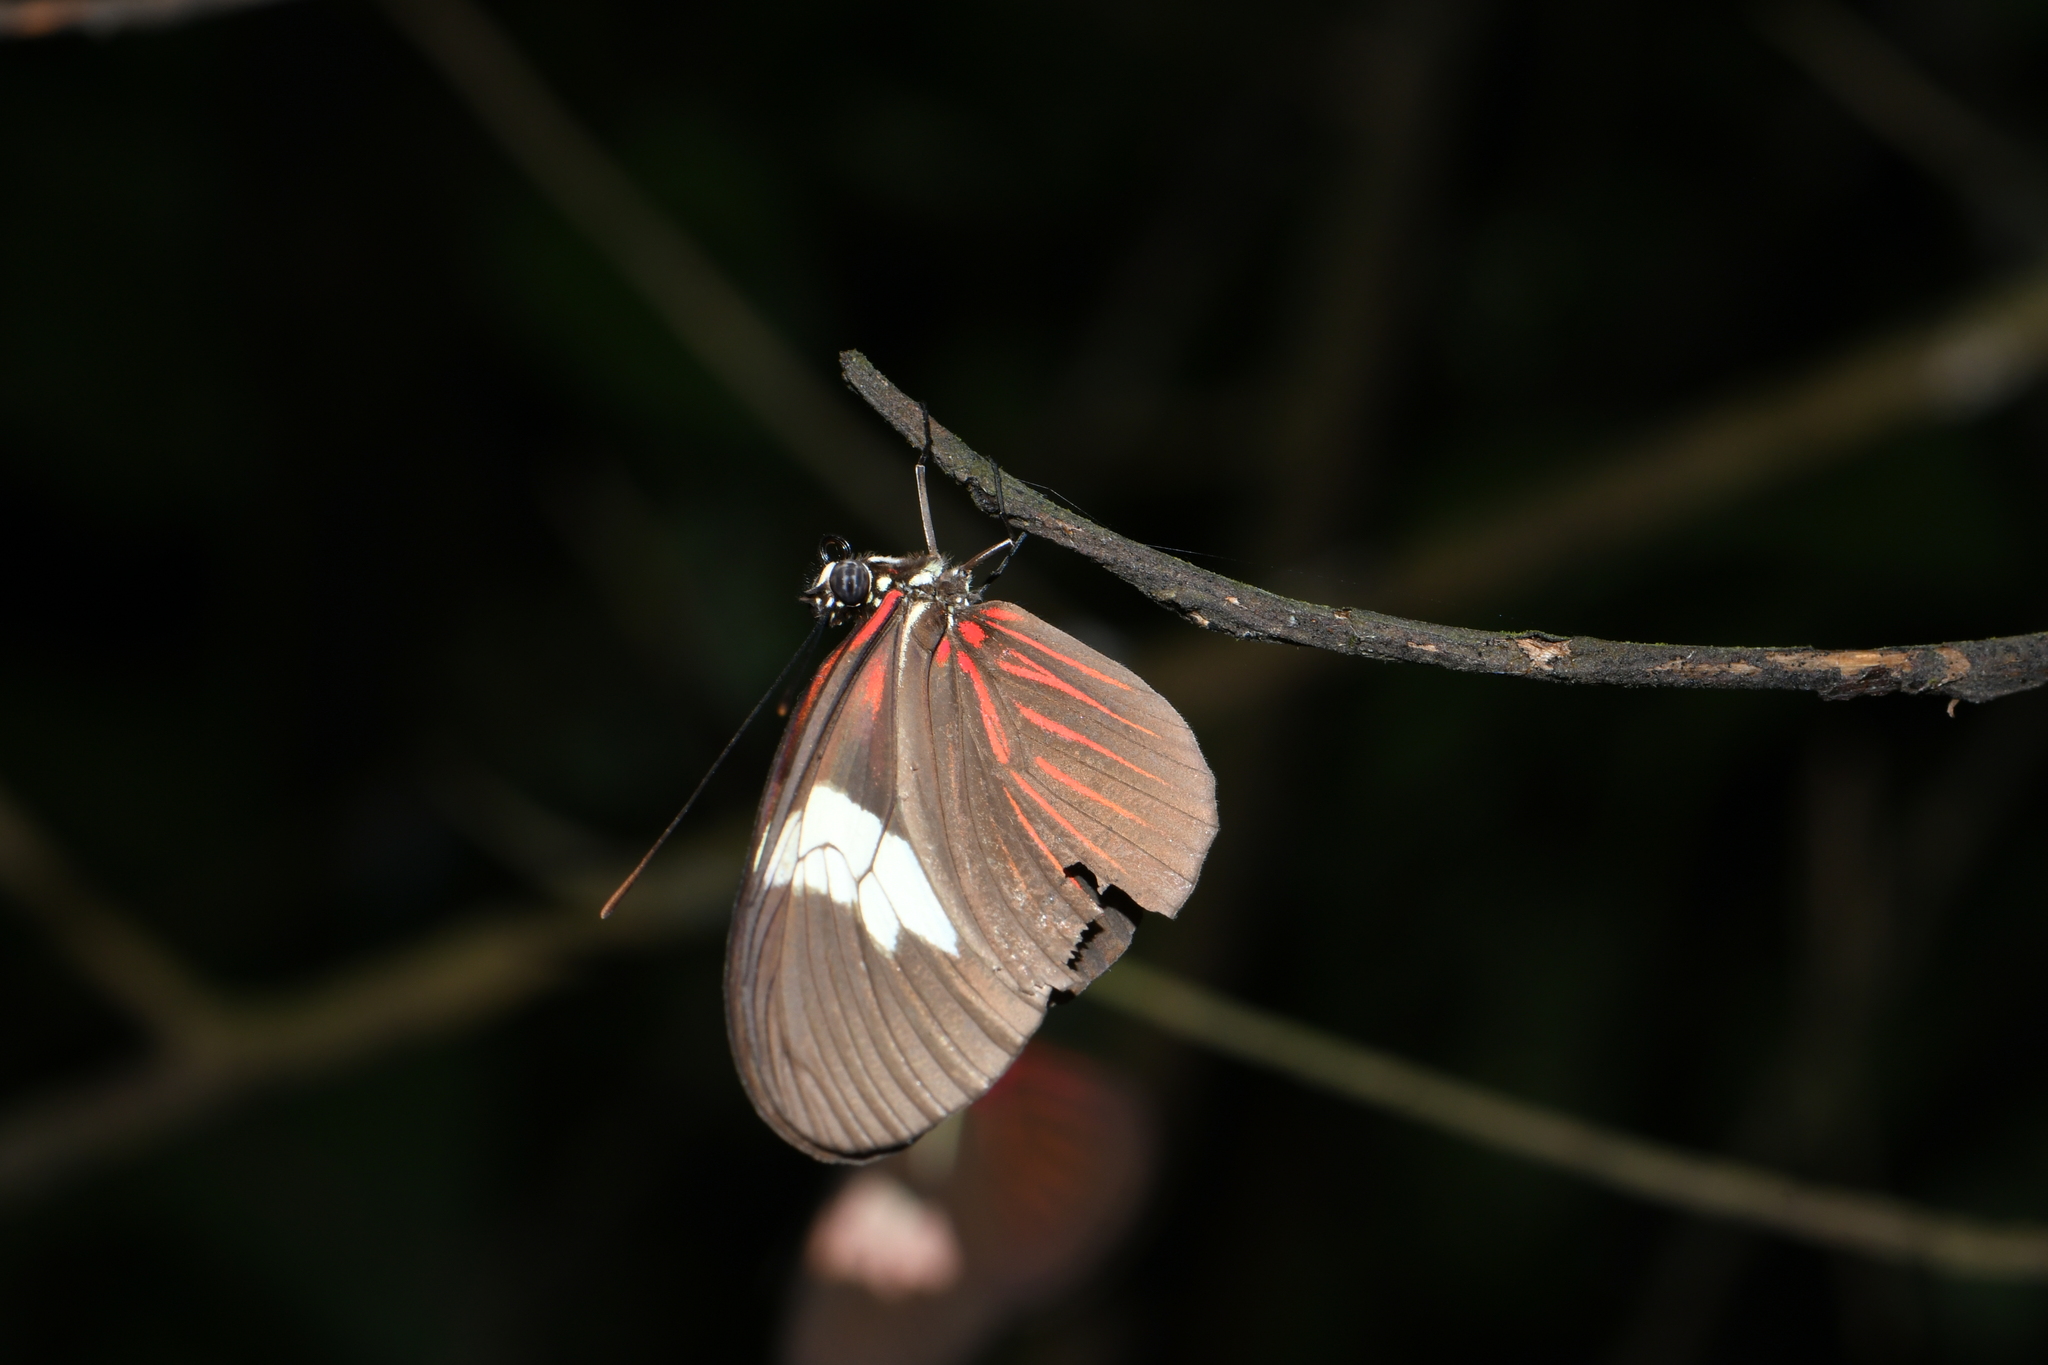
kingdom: Animalia
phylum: Arthropoda
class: Insecta
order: Lepidoptera
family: Nymphalidae
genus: Heliconius
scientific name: Heliconius erato
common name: Common patch longwing
